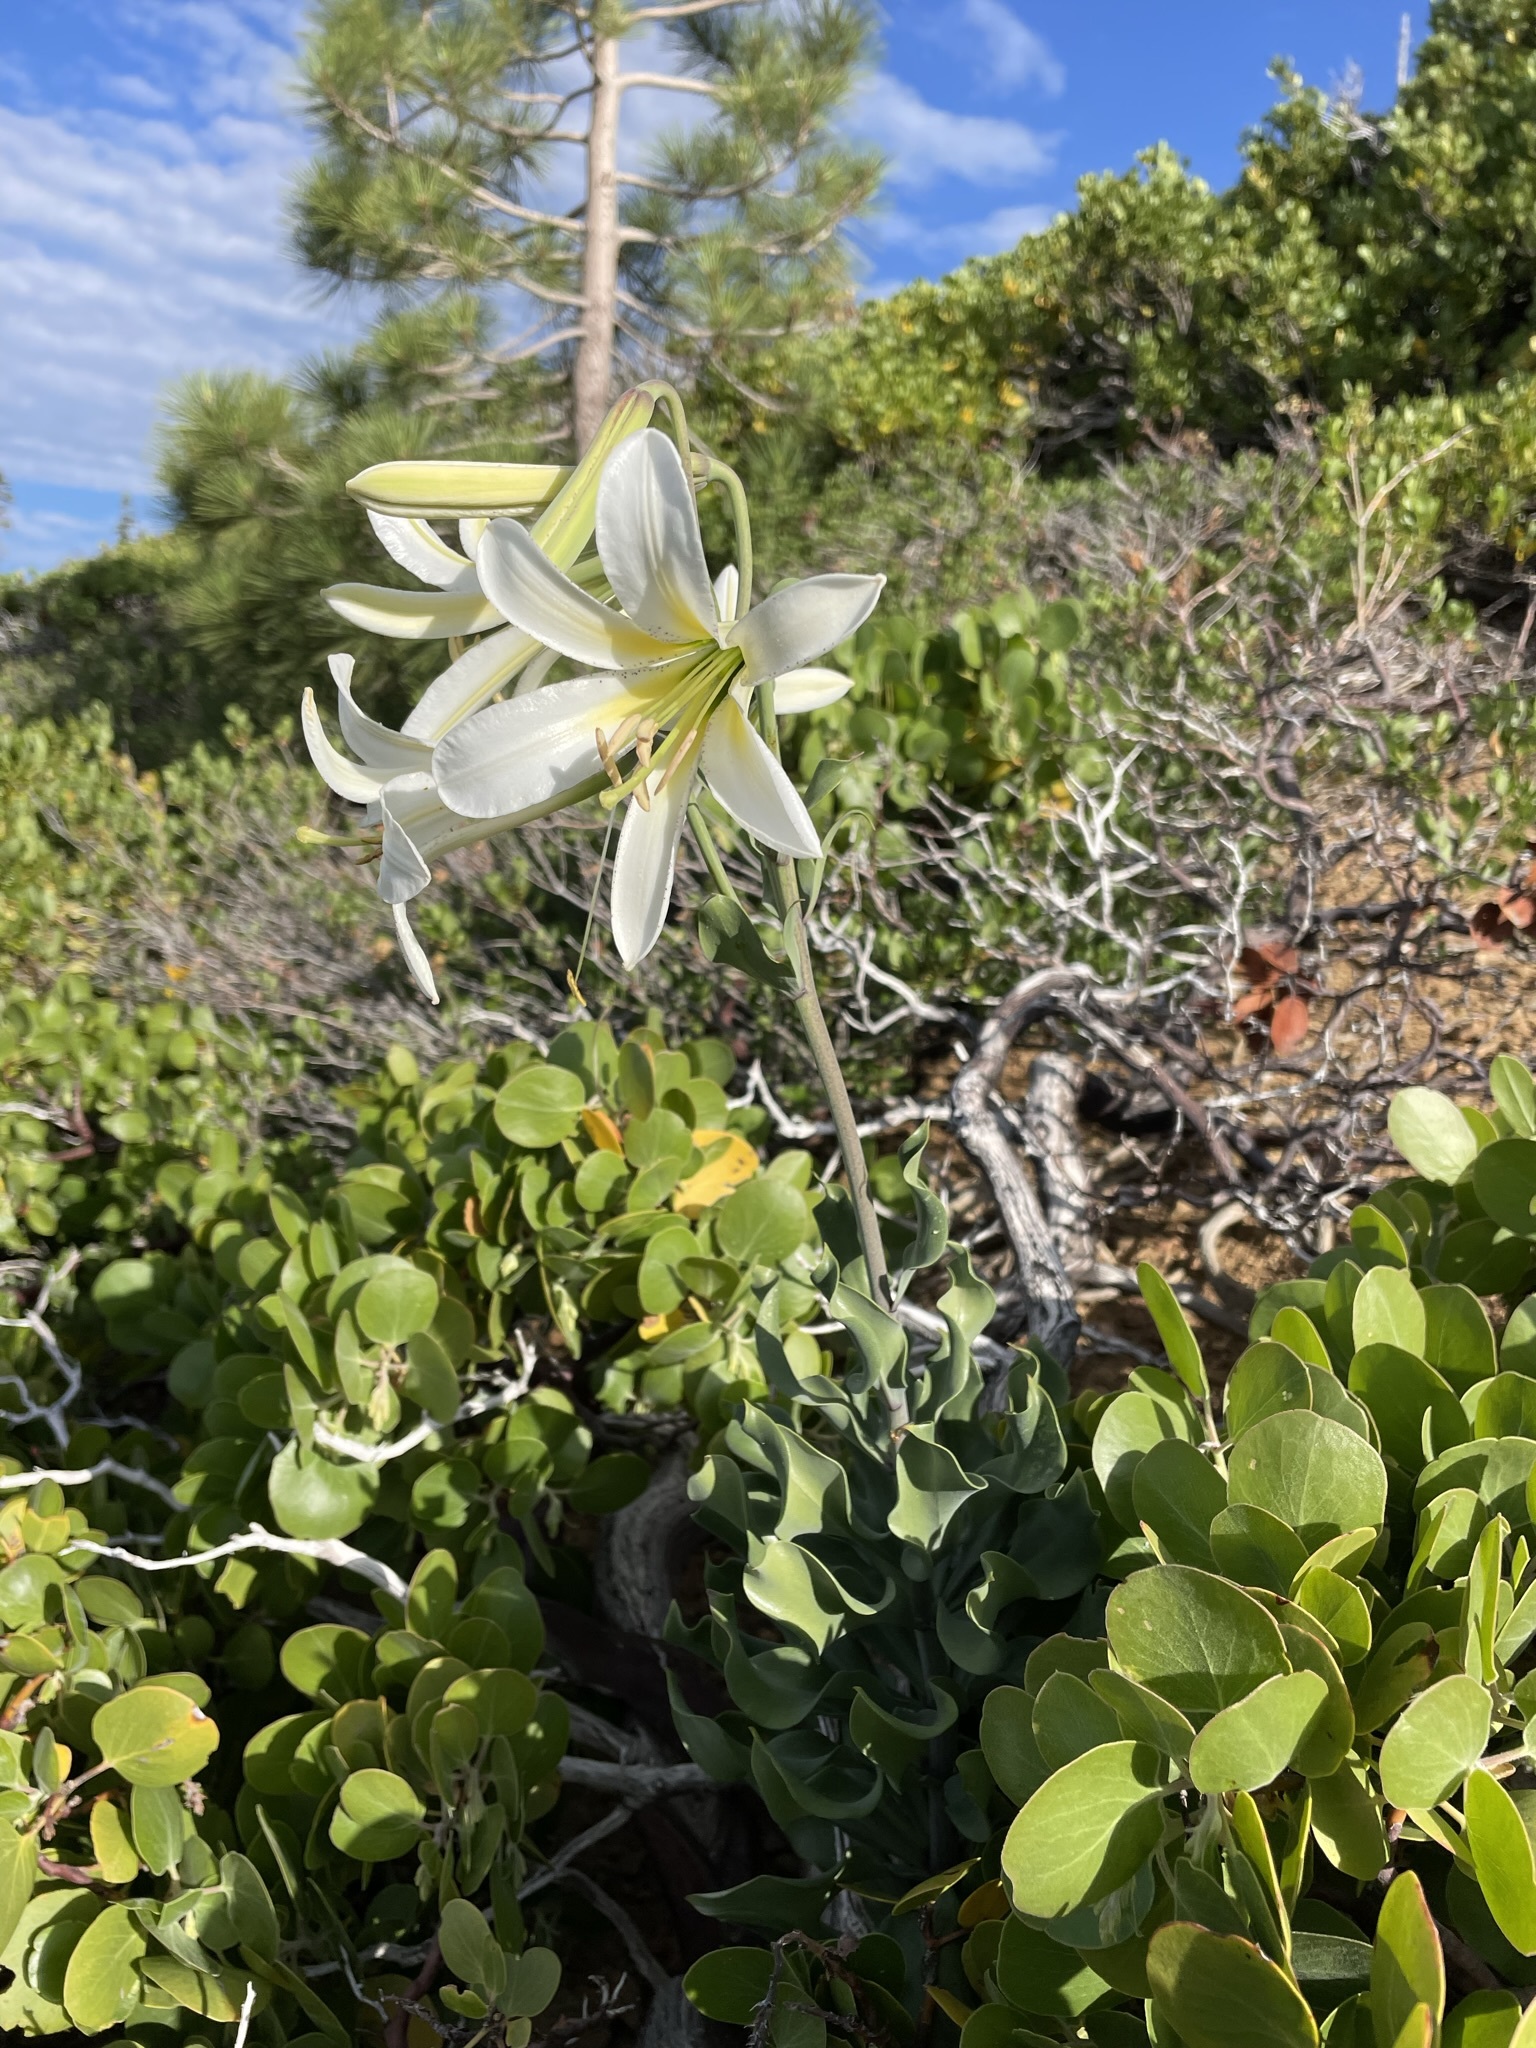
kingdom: Plantae
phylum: Tracheophyta
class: Liliopsida
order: Liliales
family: Liliaceae
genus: Lilium
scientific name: Lilium washingtonianum
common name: Washington lily
